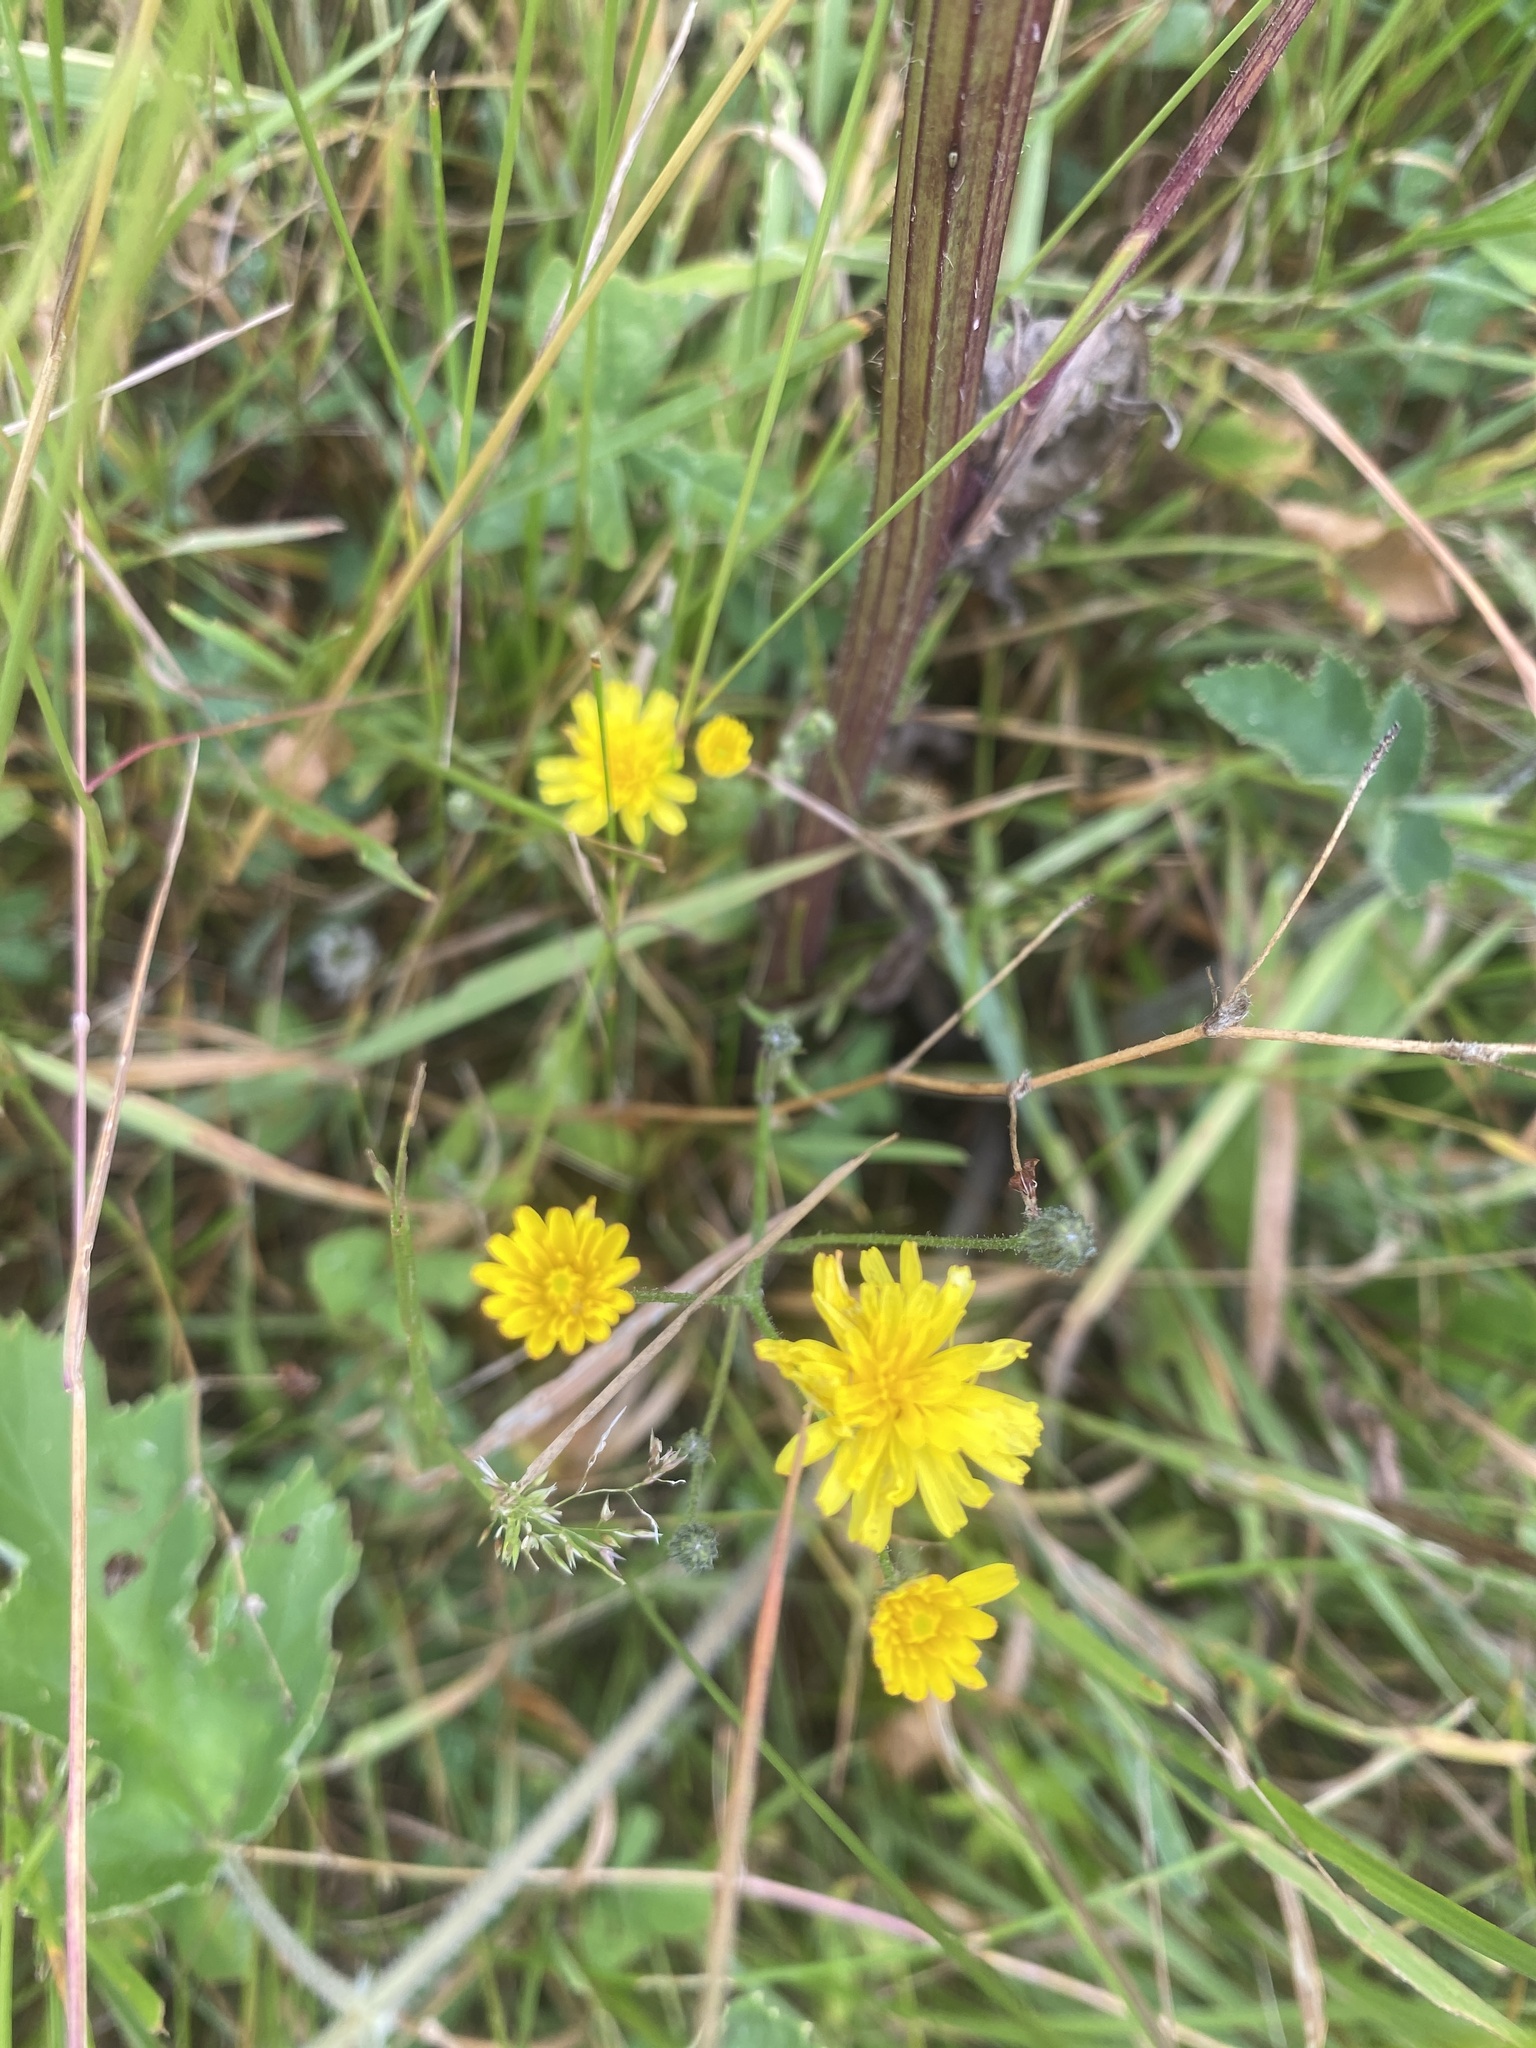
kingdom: Plantae
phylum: Tracheophyta
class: Magnoliopsida
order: Asterales
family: Asteraceae
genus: Crepis
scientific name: Crepis capillaris
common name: Smooth hawksbeard
